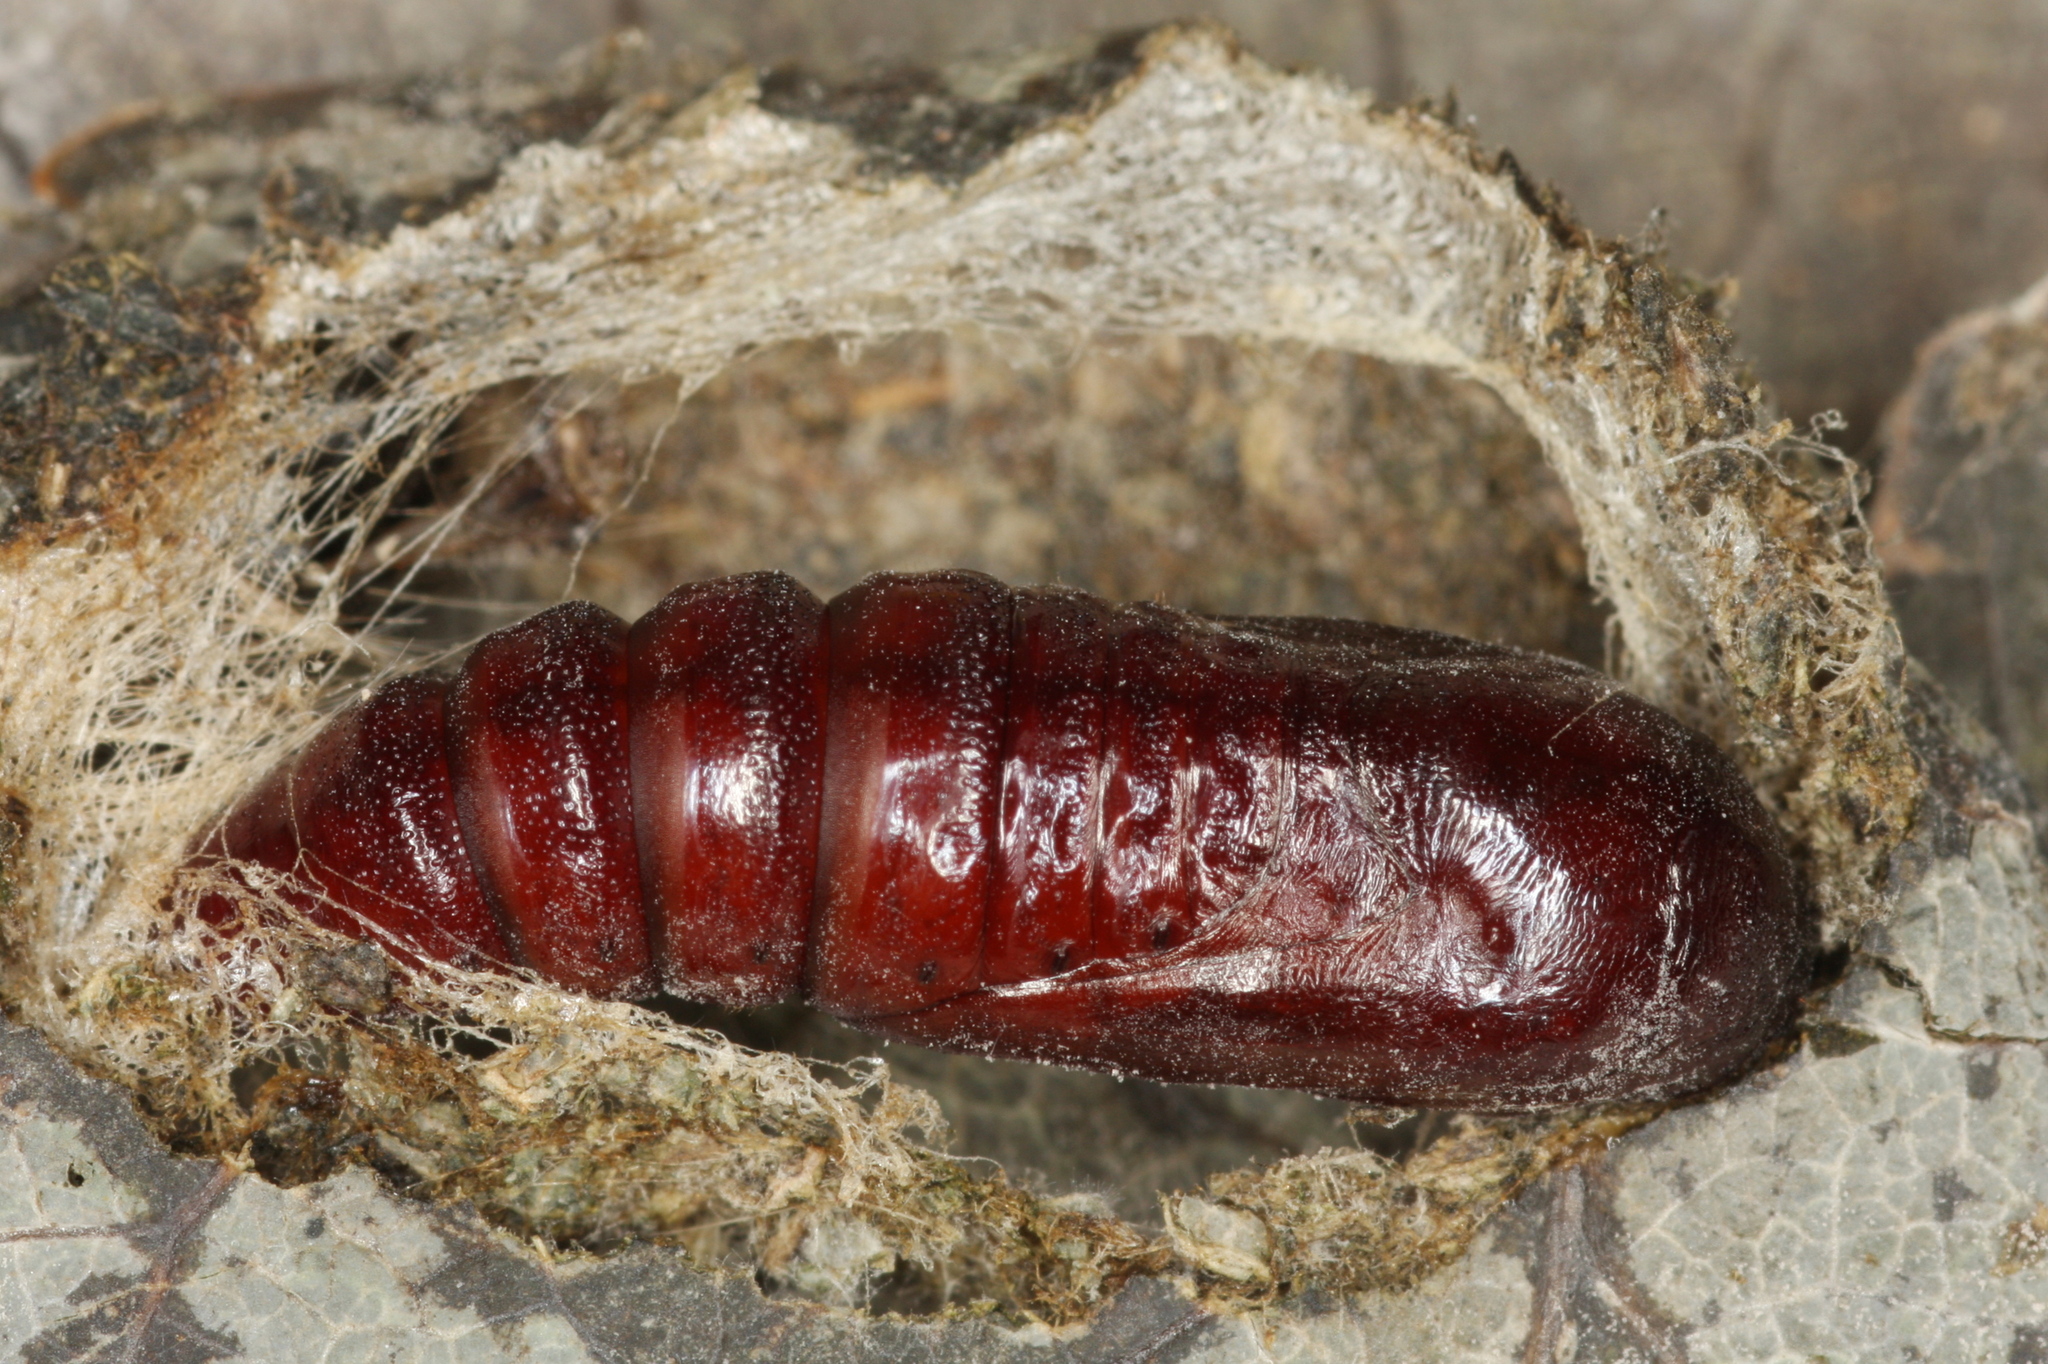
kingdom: Animalia
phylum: Arthropoda
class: Insecta
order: Lepidoptera
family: Noctuidae
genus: Acronicta
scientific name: Acronicta megacephala
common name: Poplar grey
